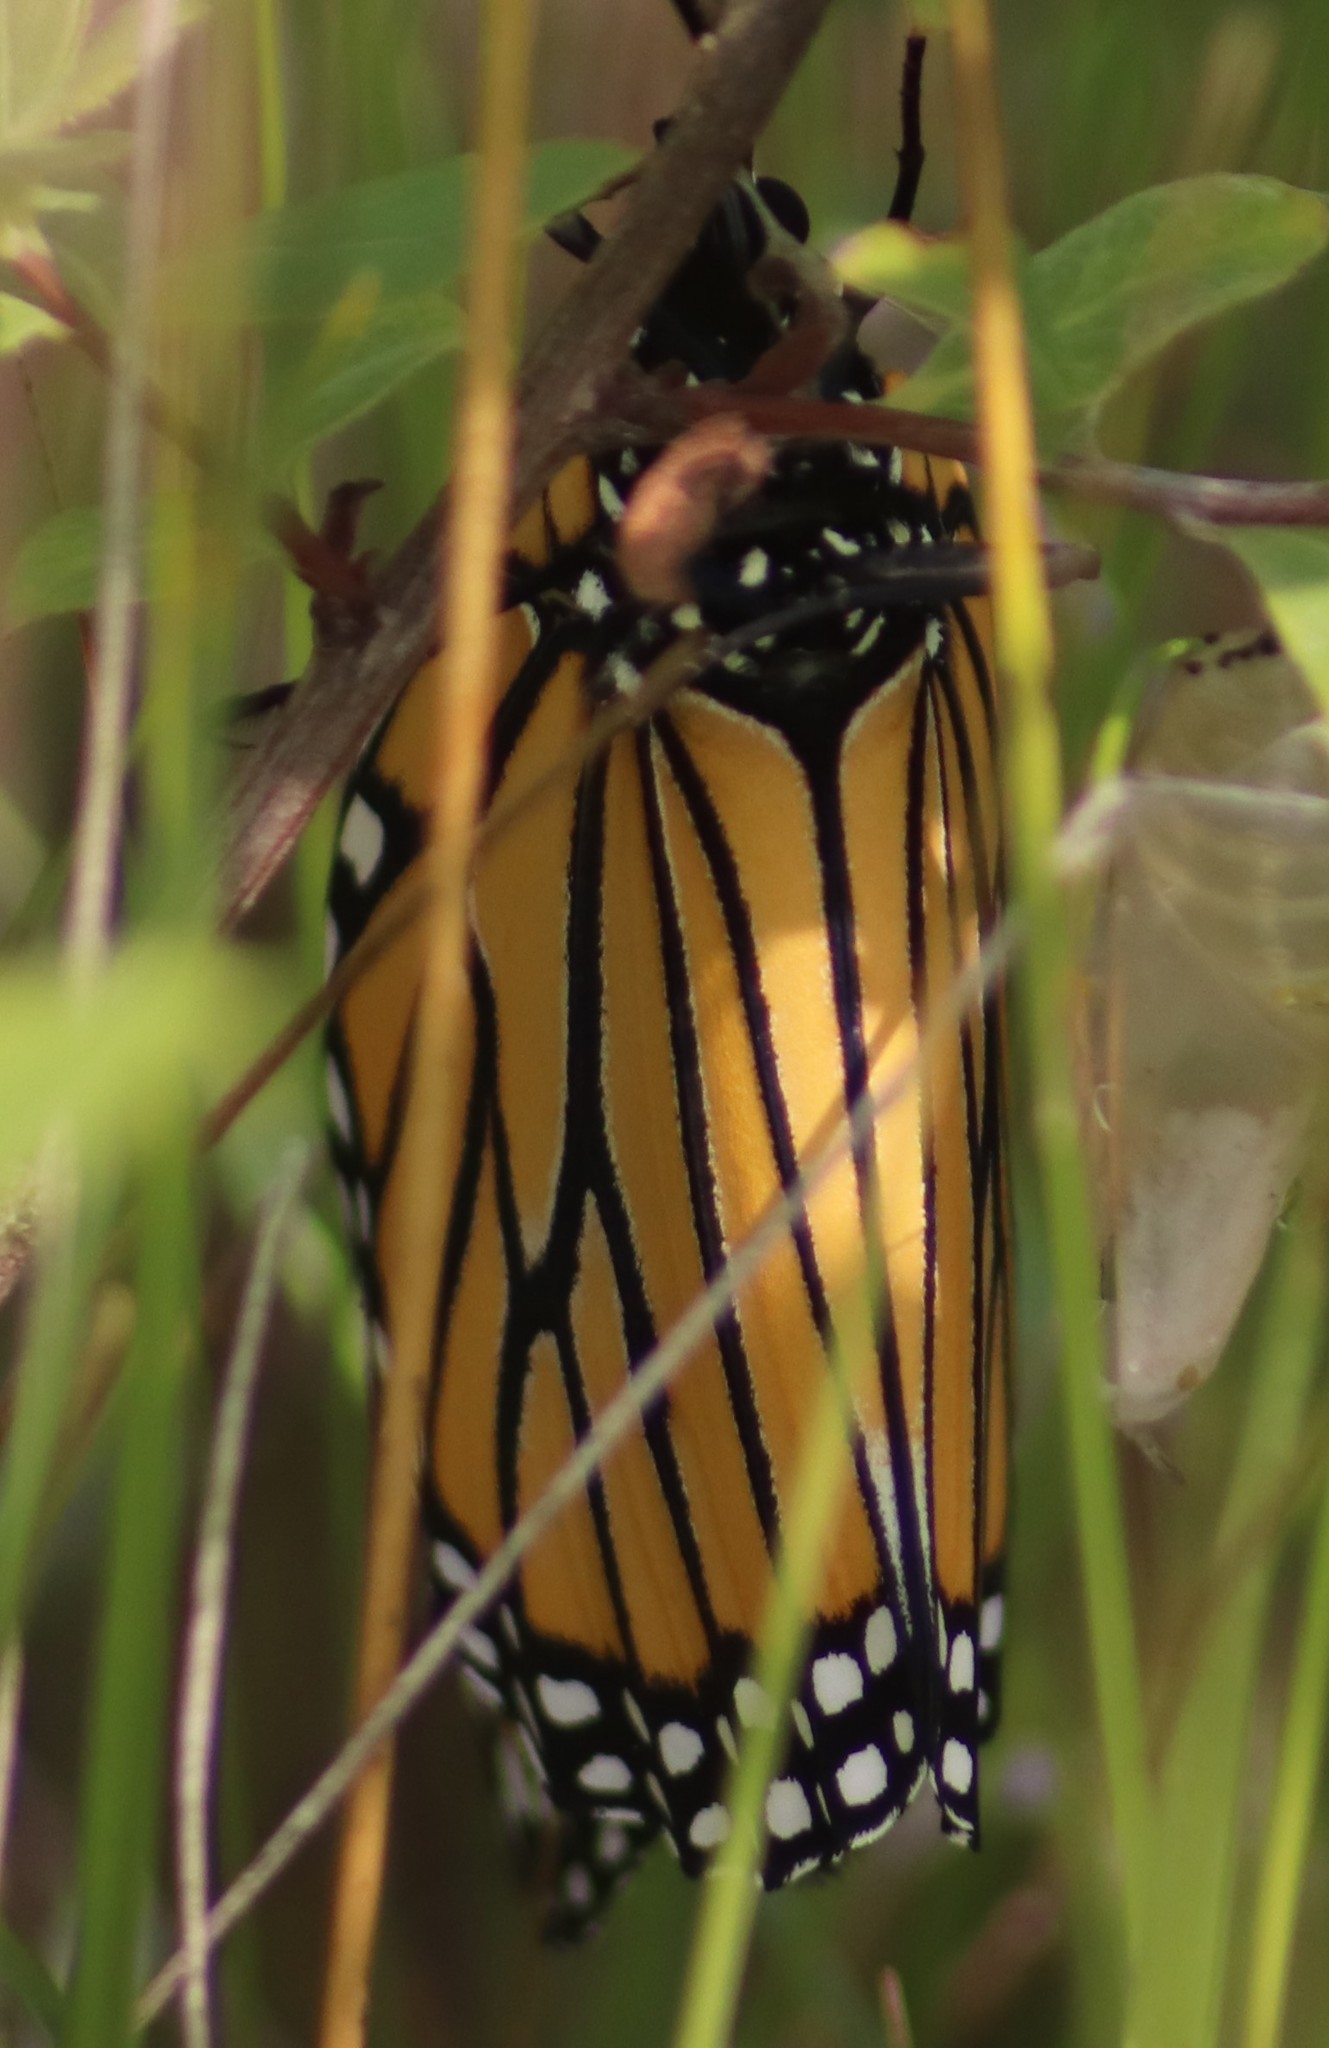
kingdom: Animalia
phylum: Arthropoda
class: Insecta
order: Lepidoptera
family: Nymphalidae
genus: Danaus
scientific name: Danaus plexippus
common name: Monarch
